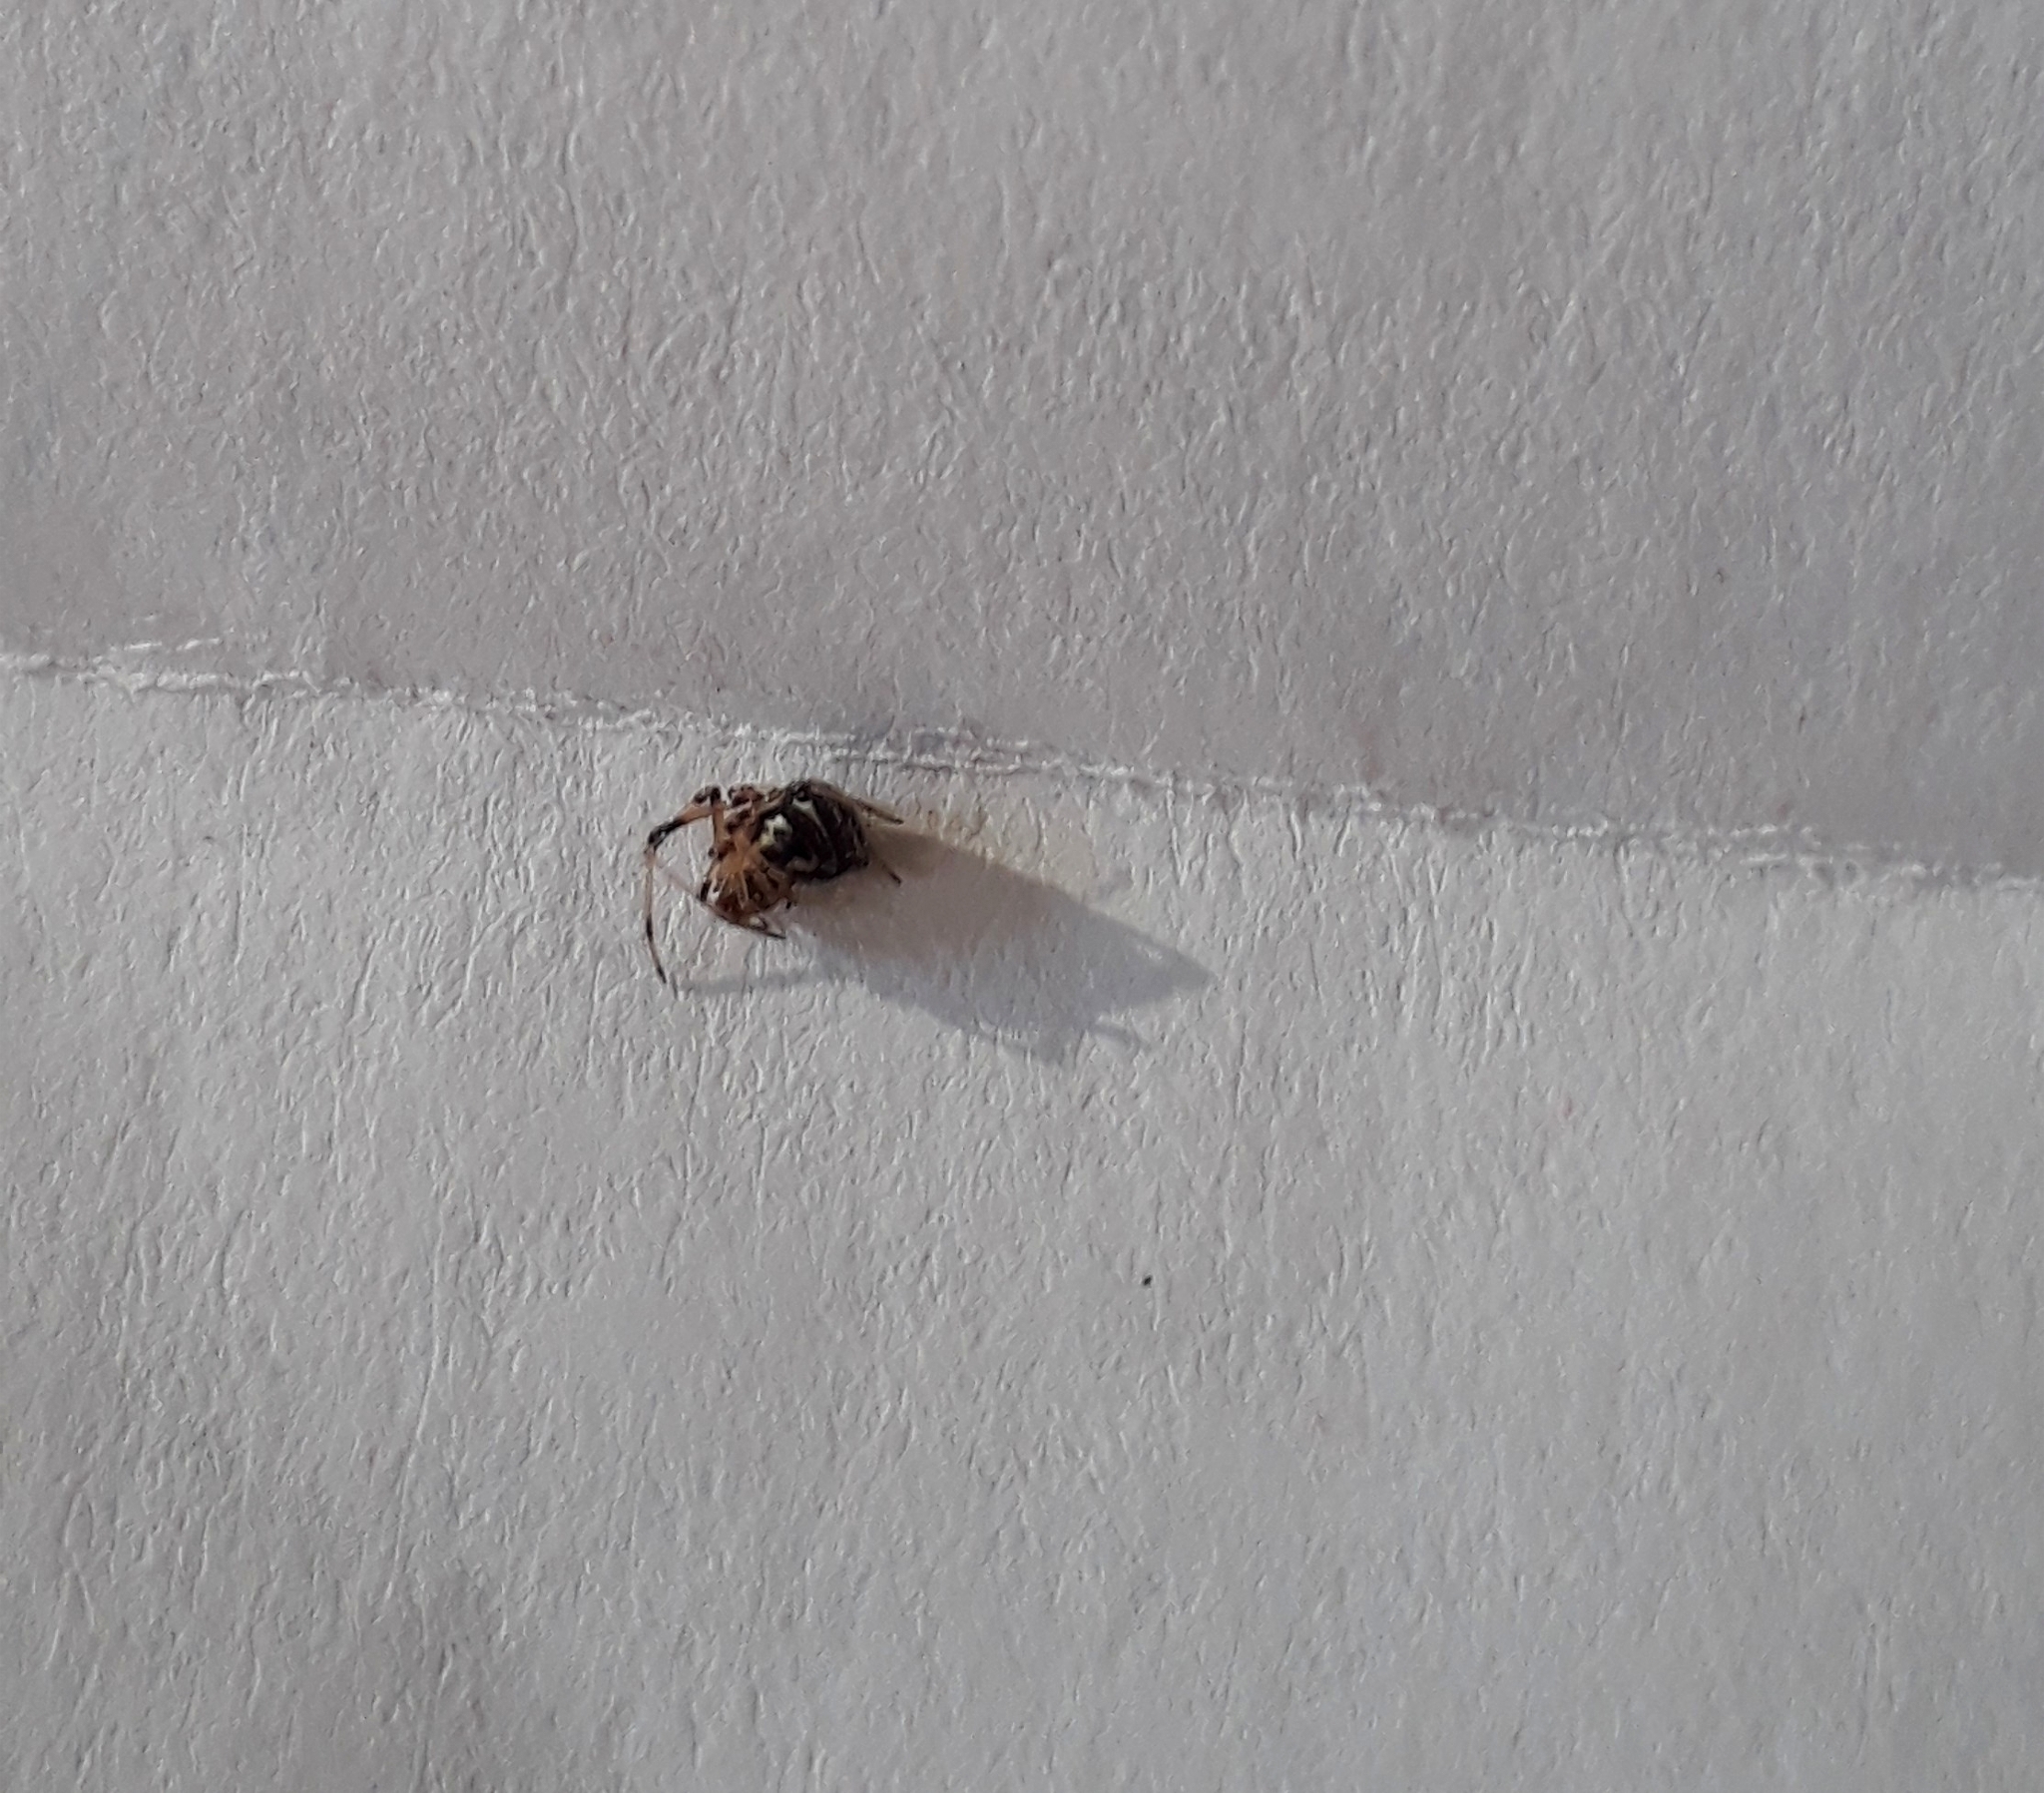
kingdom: Animalia
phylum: Arthropoda
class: Arachnida
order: Araneae
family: Theridiidae
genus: Latrodectus
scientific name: Latrodectus geometricus
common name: Brown widow spider
